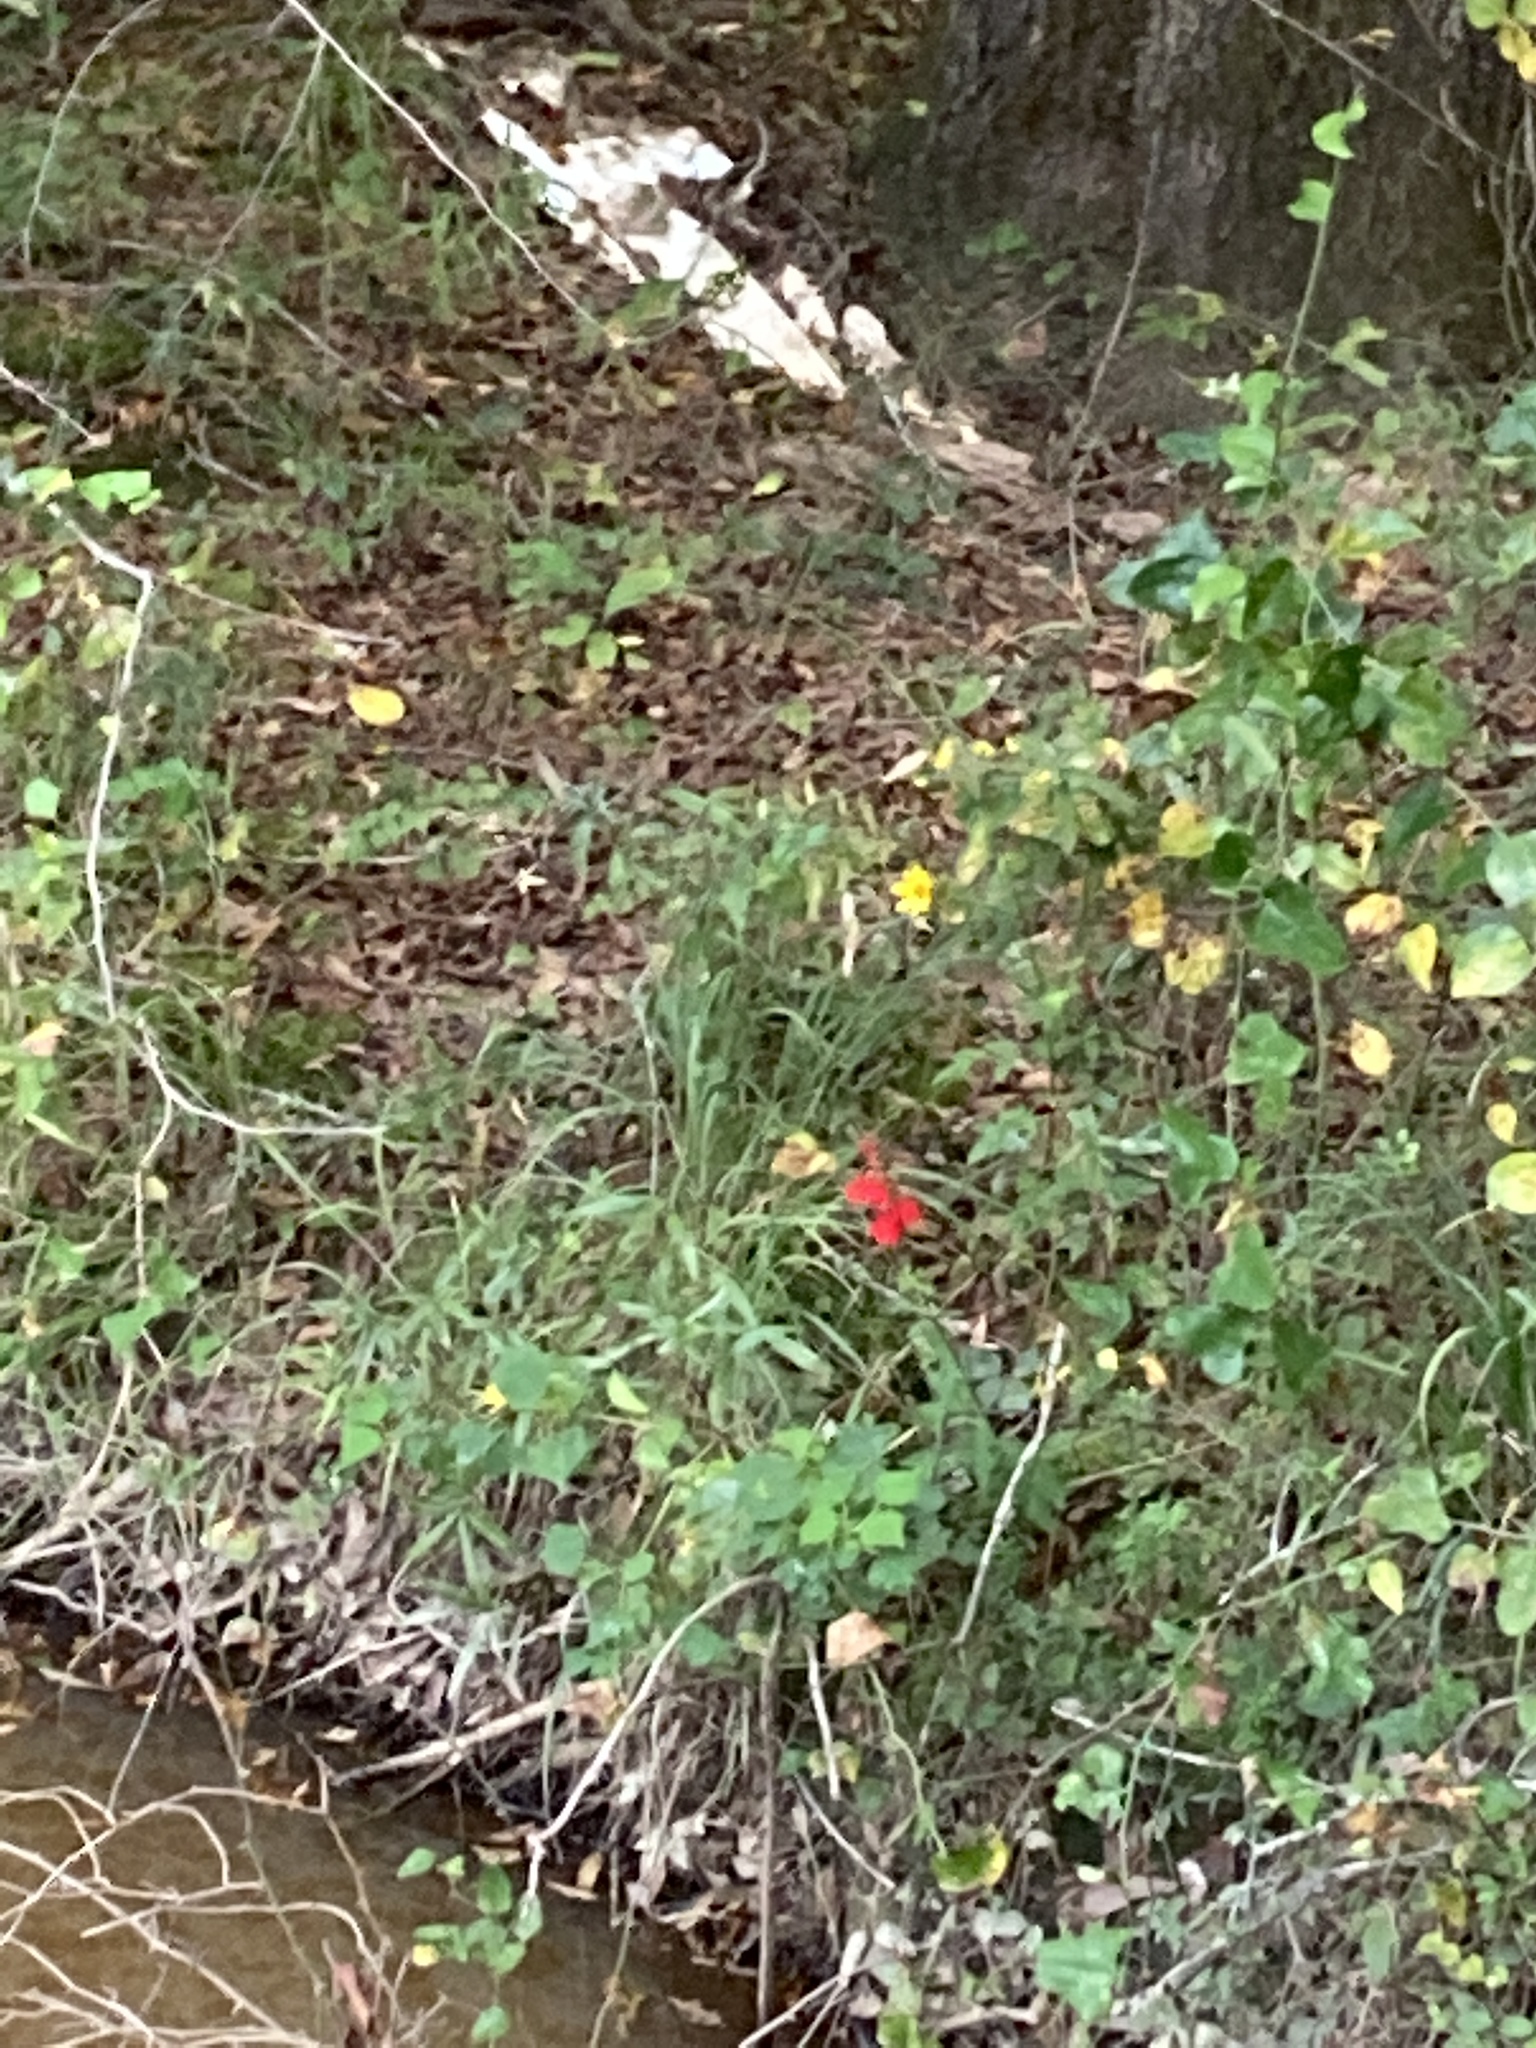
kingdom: Plantae
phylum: Tracheophyta
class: Magnoliopsida
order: Asterales
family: Campanulaceae
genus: Lobelia
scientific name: Lobelia cardinalis
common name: Cardinal flower
